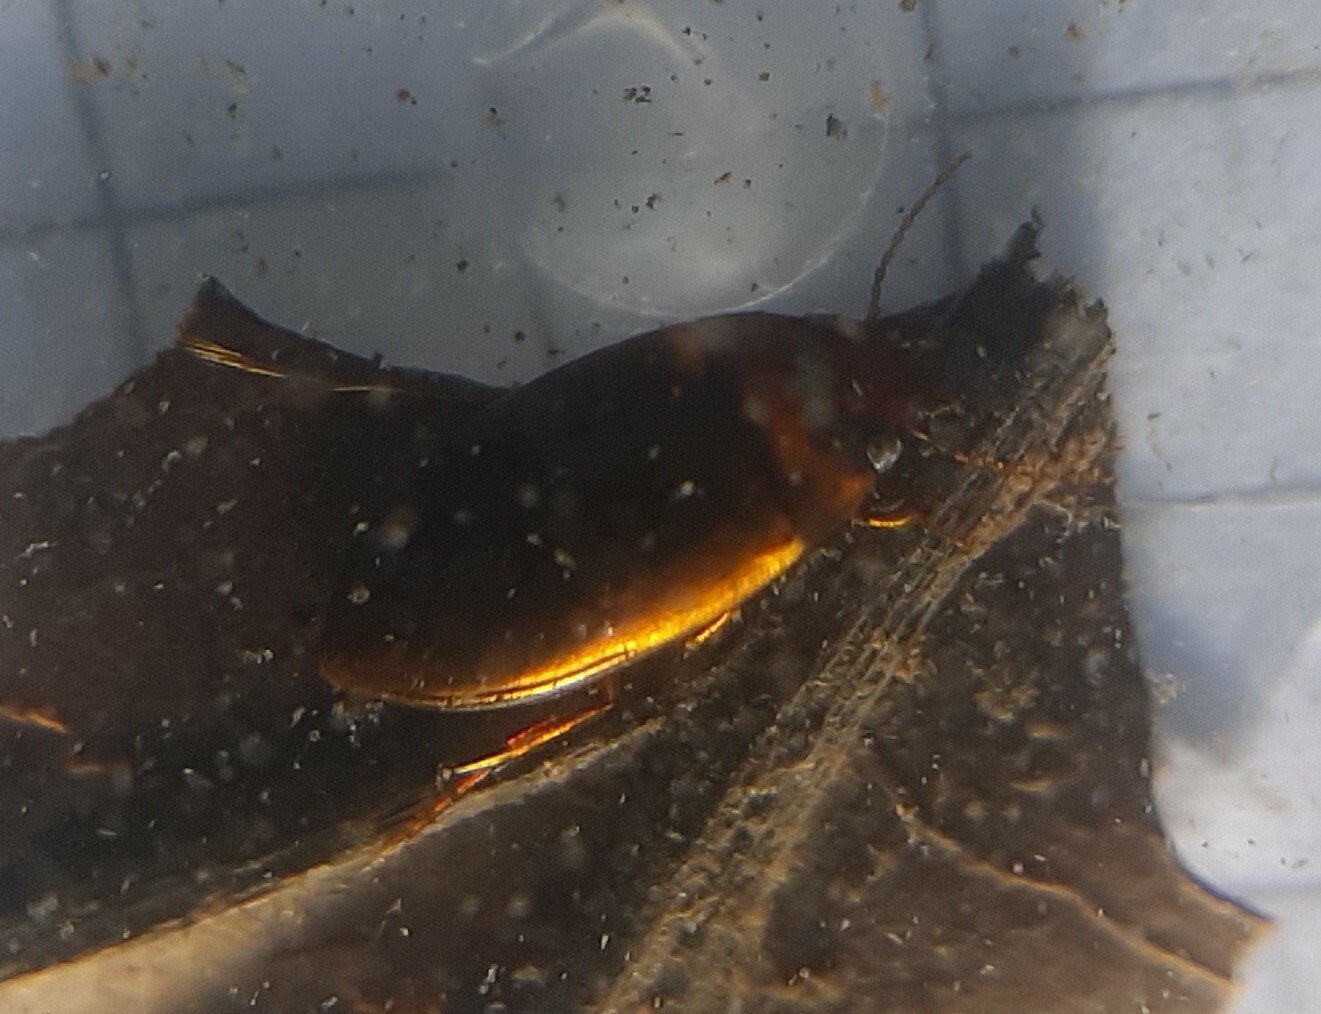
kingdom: Animalia
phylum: Arthropoda
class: Insecta
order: Coleoptera
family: Dytiscidae
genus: Liopterus
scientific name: Liopterus haemorrhoidalis
